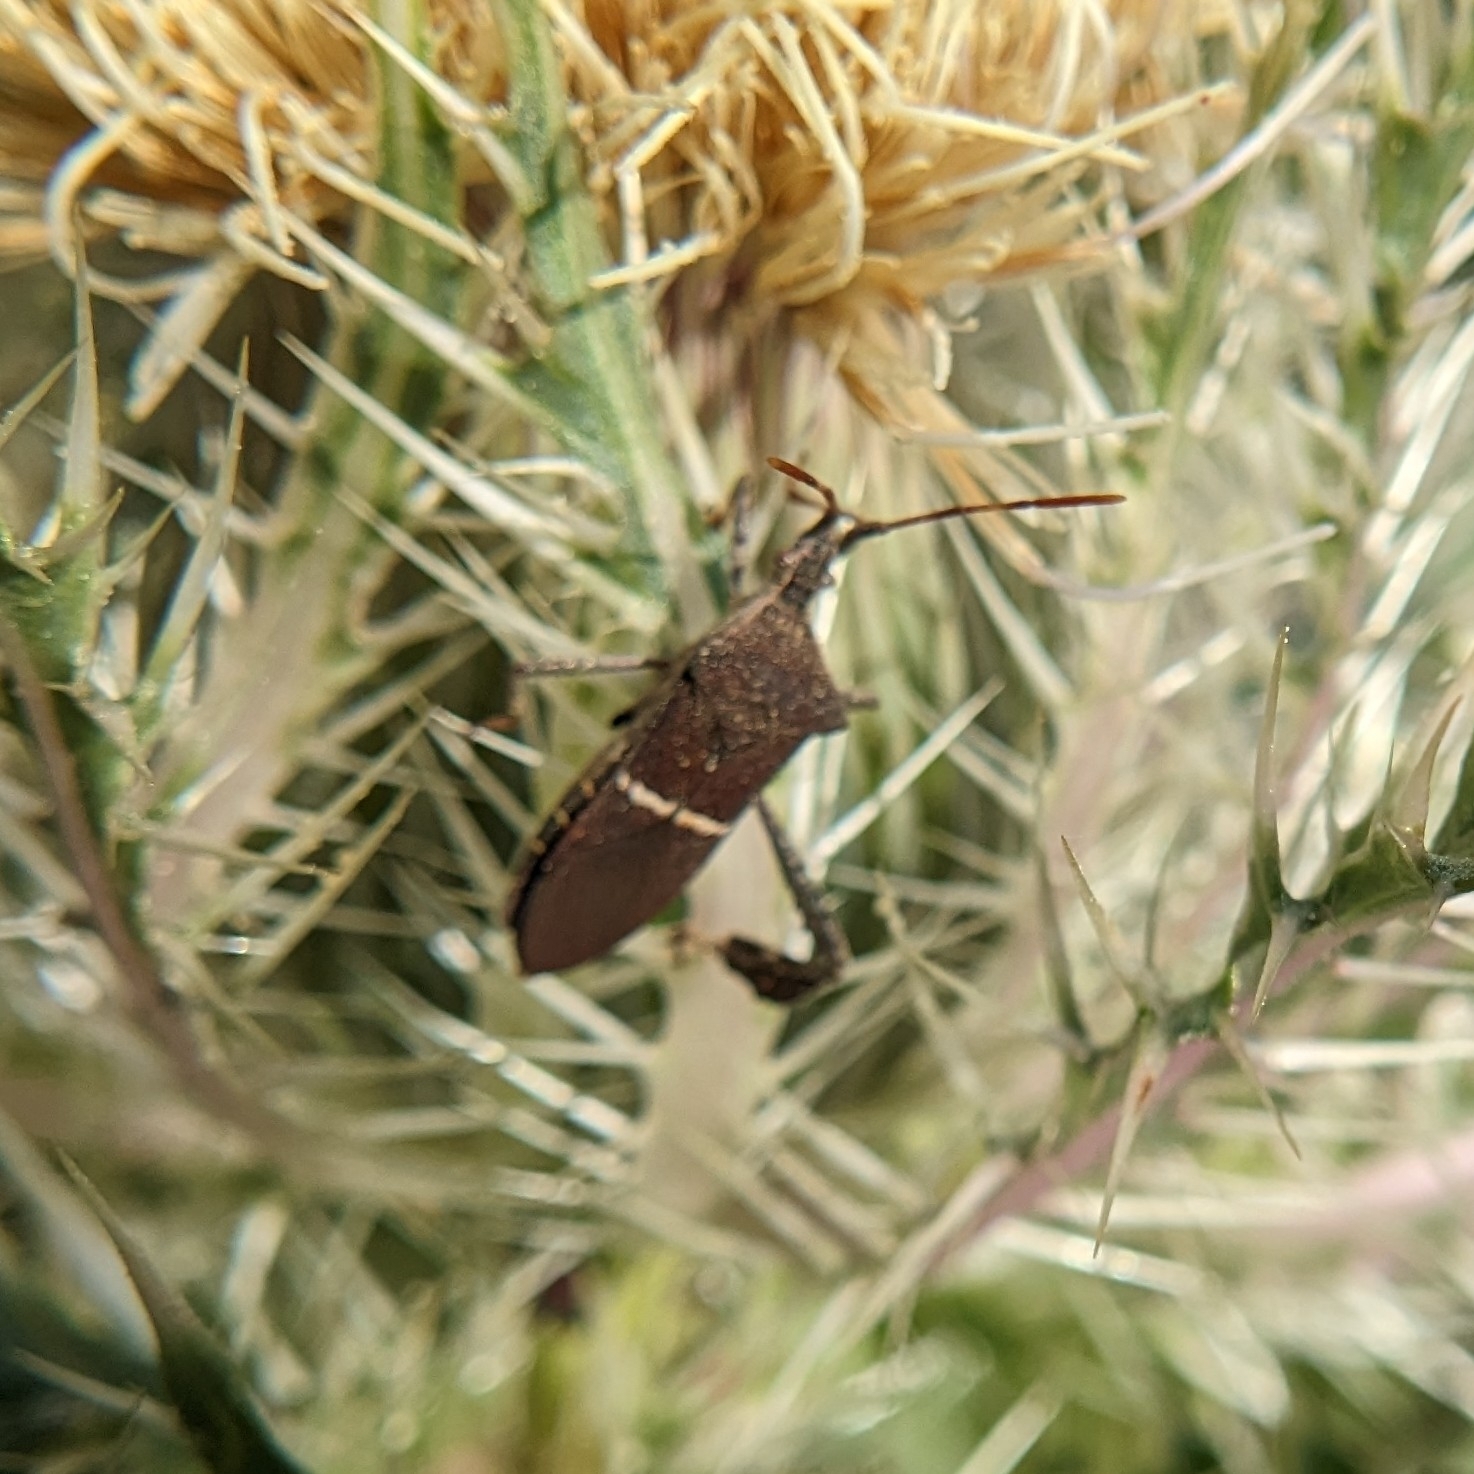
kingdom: Animalia
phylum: Arthropoda
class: Insecta
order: Hemiptera
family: Coreidae
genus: Leptoglossus
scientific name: Leptoglossus phyllopus
